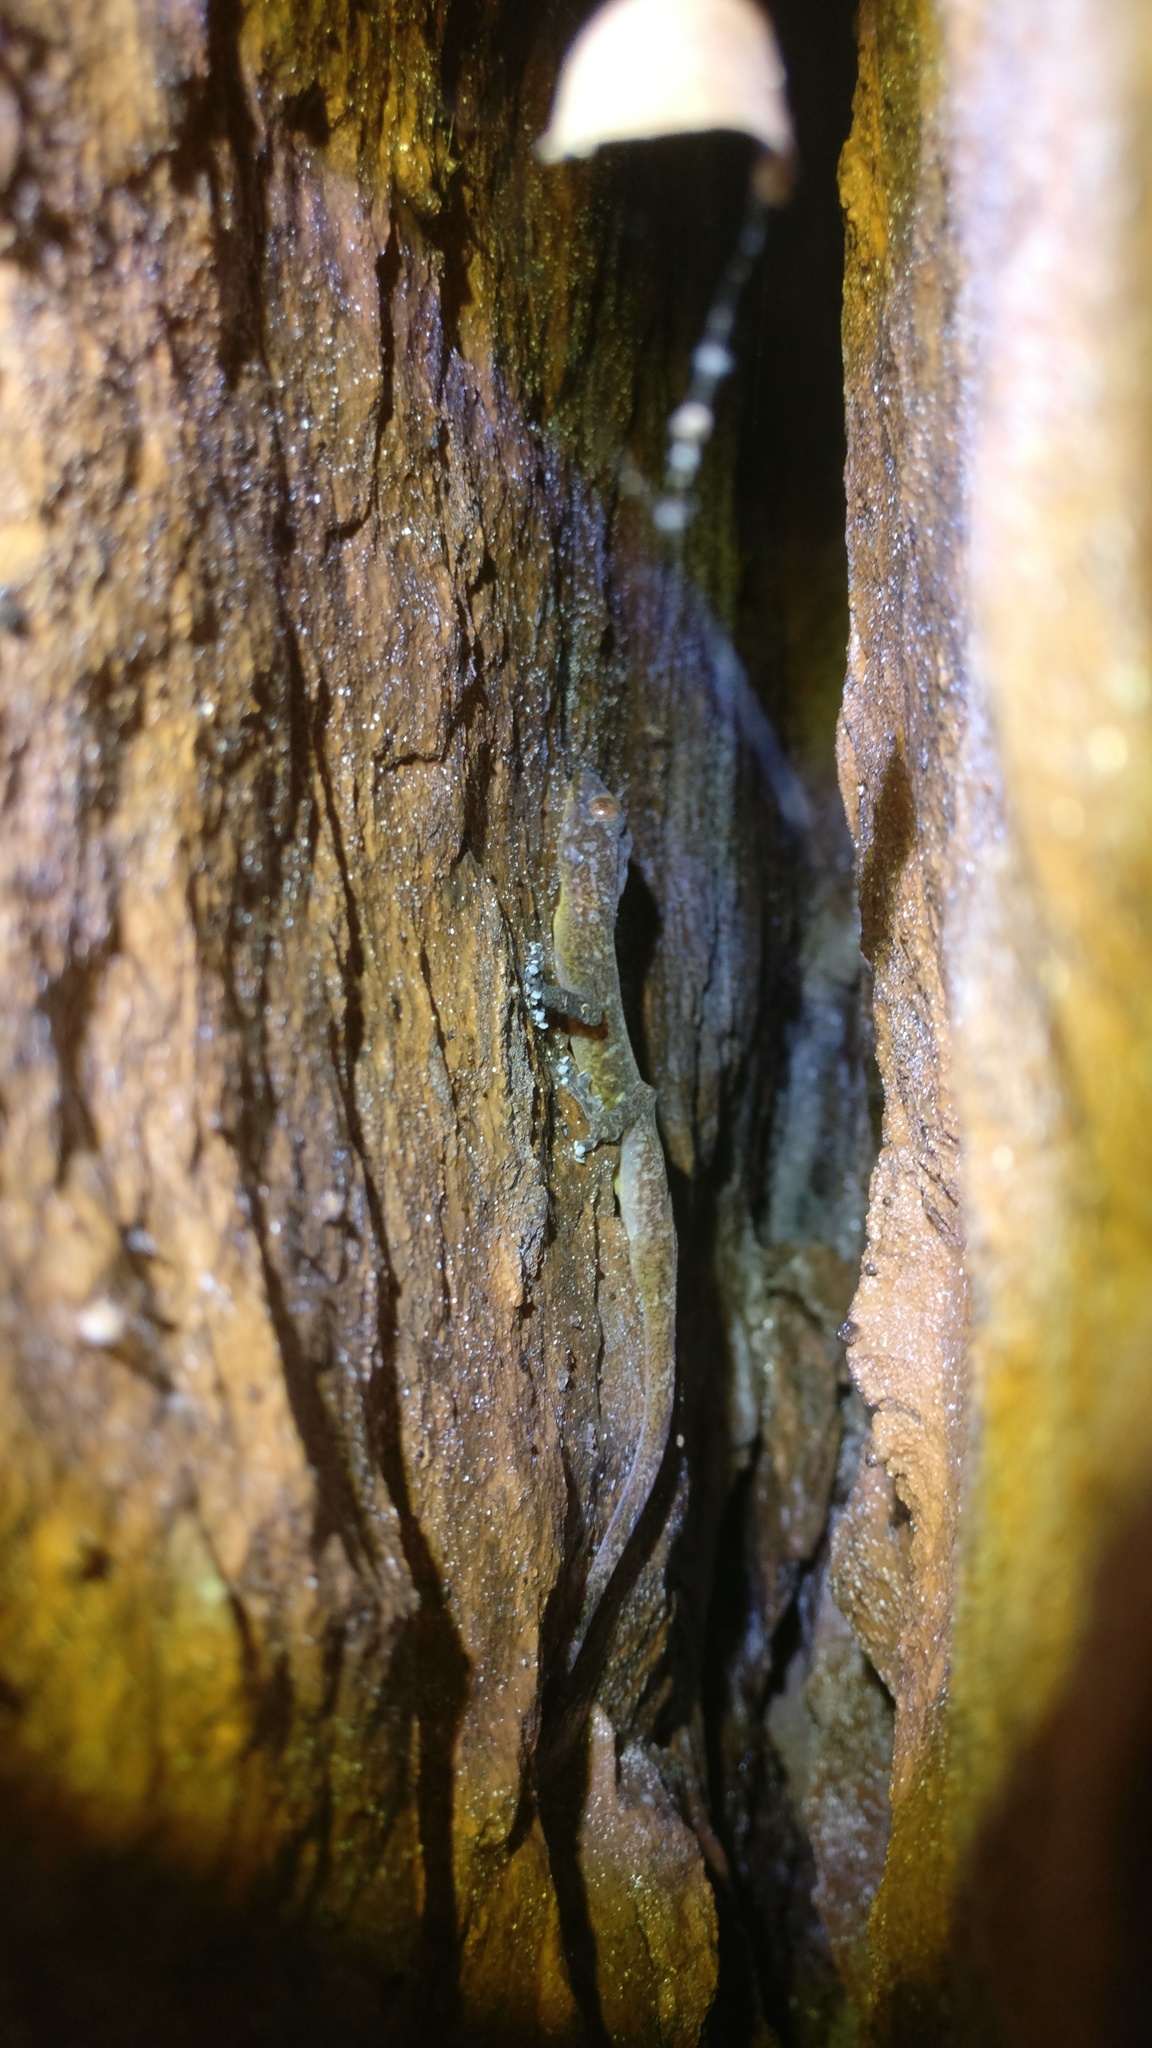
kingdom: Animalia
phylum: Chordata
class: Squamata
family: Gekkonidae
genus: Calodactylodes
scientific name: Calodactylodes aureus
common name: Indian golden gecko
